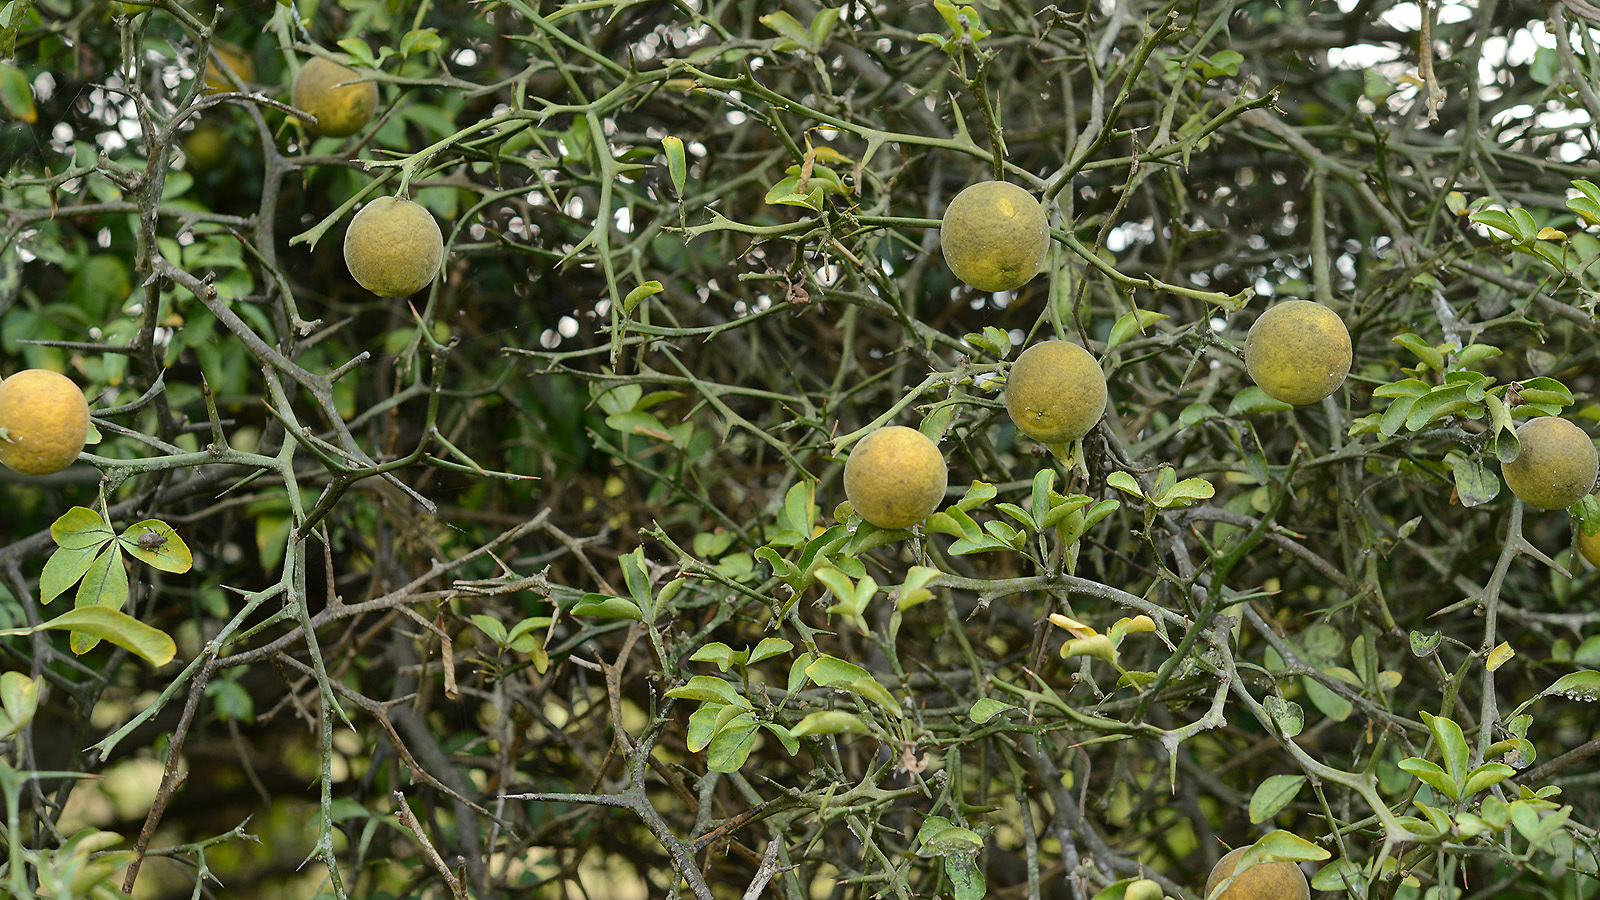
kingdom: Plantae
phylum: Tracheophyta
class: Magnoliopsida
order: Sapindales
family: Rutaceae
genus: Citrus
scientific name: Citrus trifoliata
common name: Japanese bitter-orange
